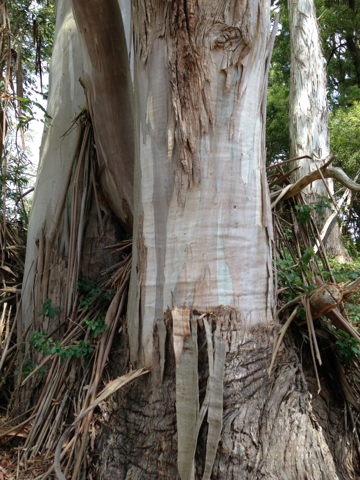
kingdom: Plantae
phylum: Tracheophyta
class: Magnoliopsida
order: Myrtales
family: Myrtaceae
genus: Eucalyptus
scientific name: Eucalyptus globulus
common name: Southern blue-gum
